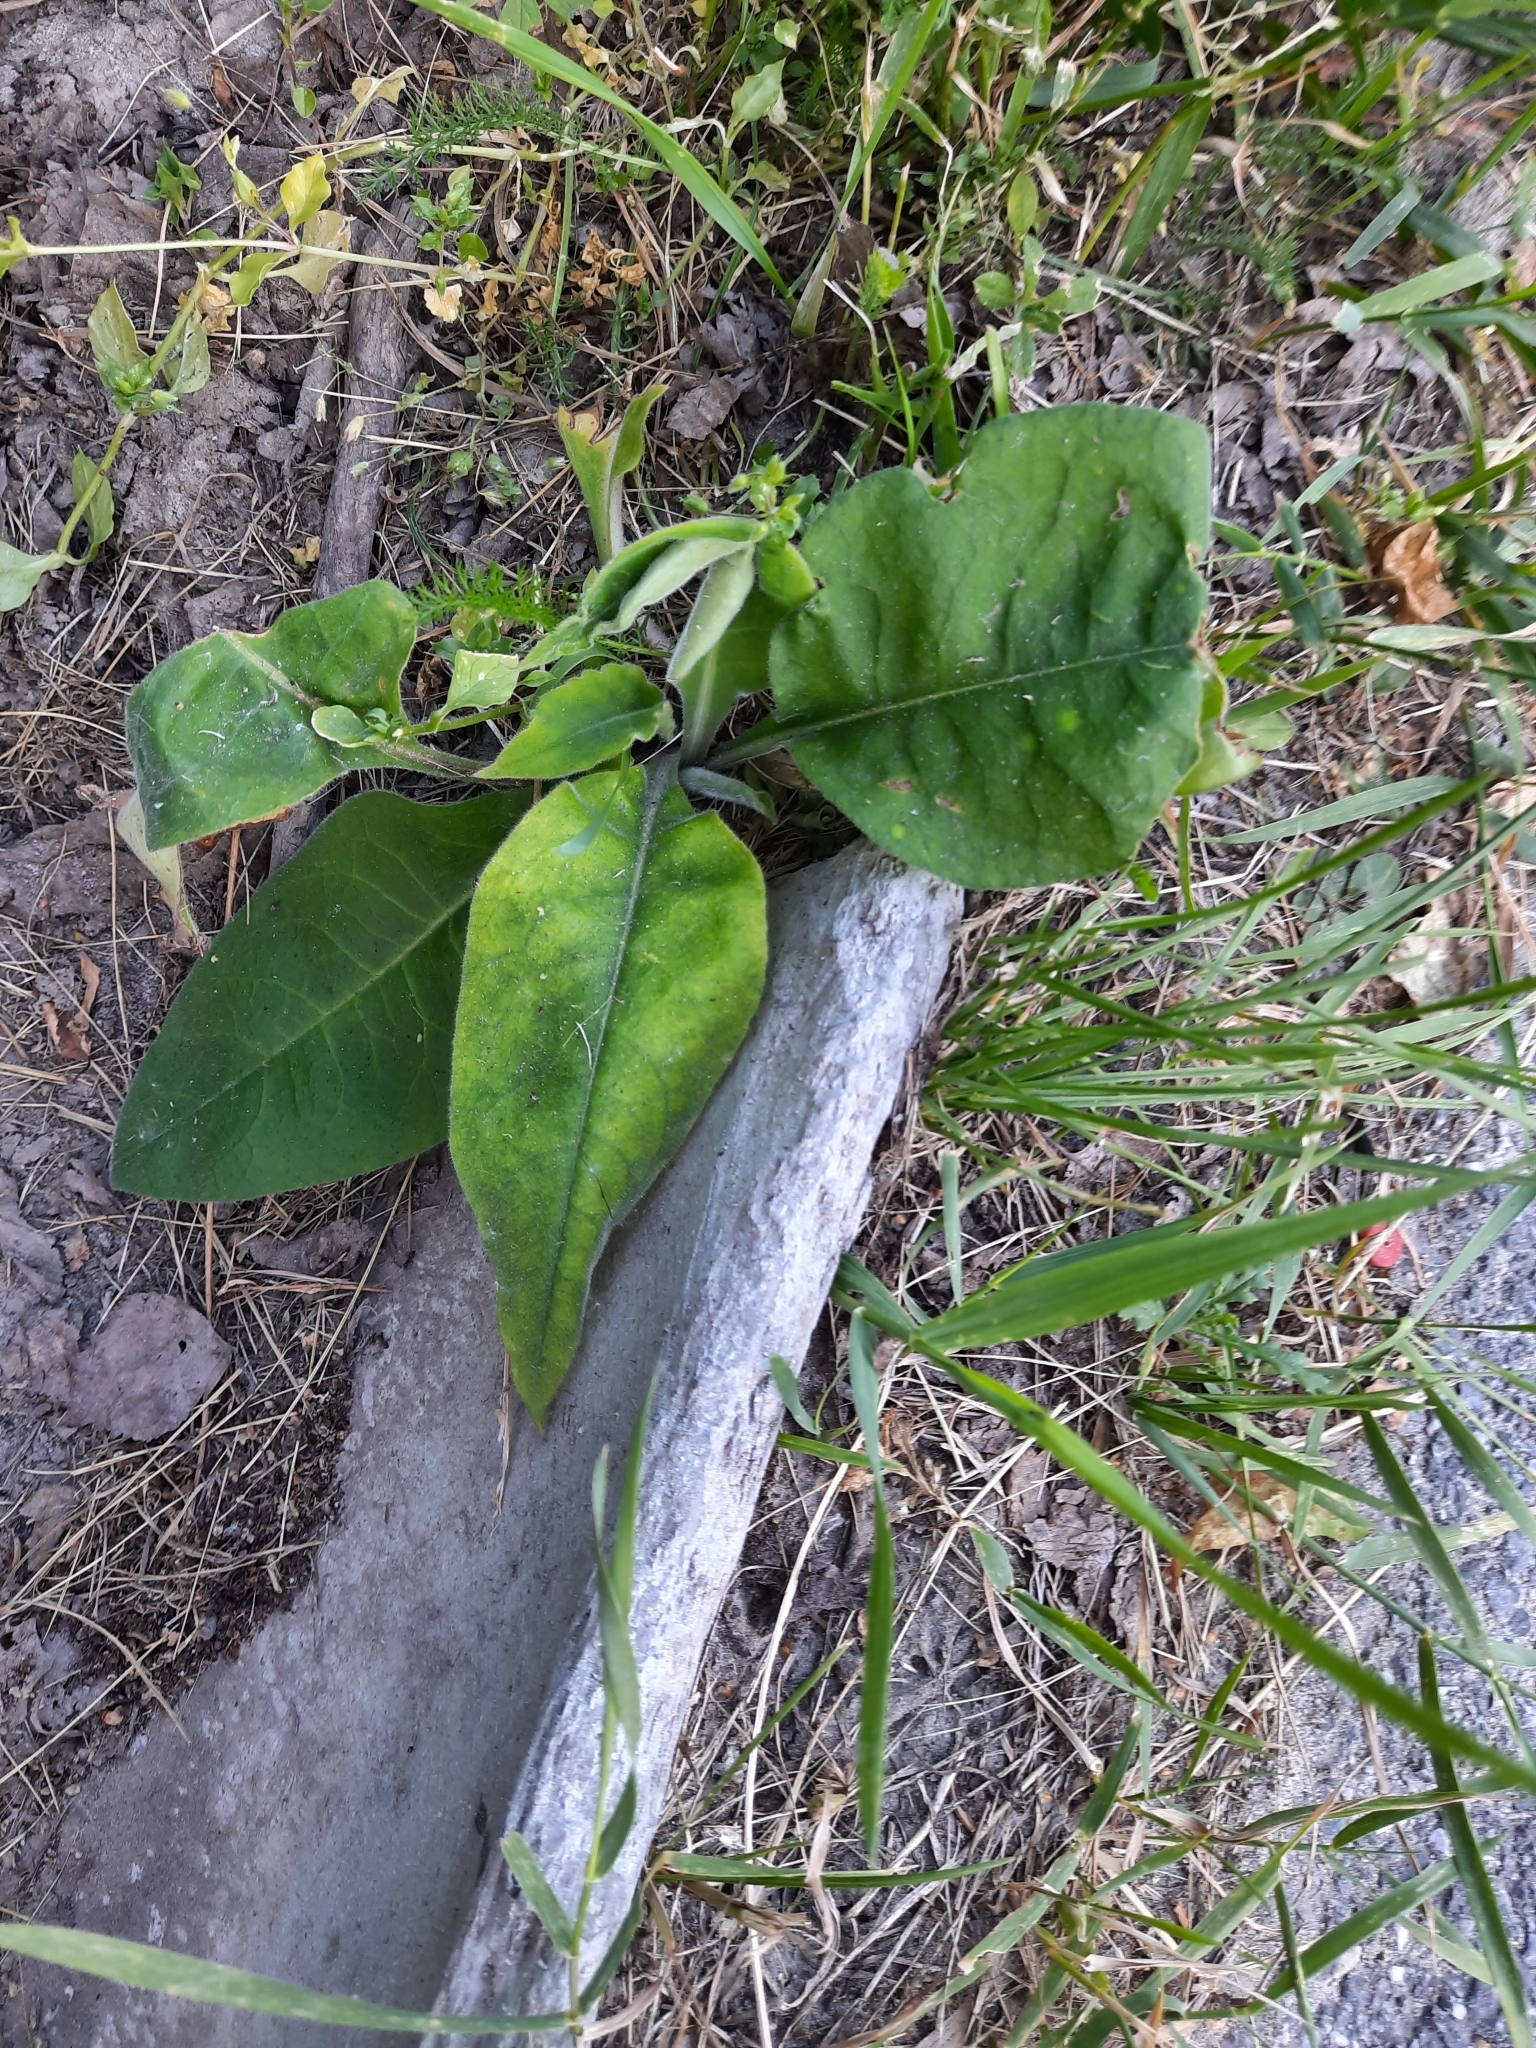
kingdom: Plantae
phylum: Tracheophyta
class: Magnoliopsida
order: Boraginales
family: Boraginaceae
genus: Pulmonaria
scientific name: Pulmonaria mollis
